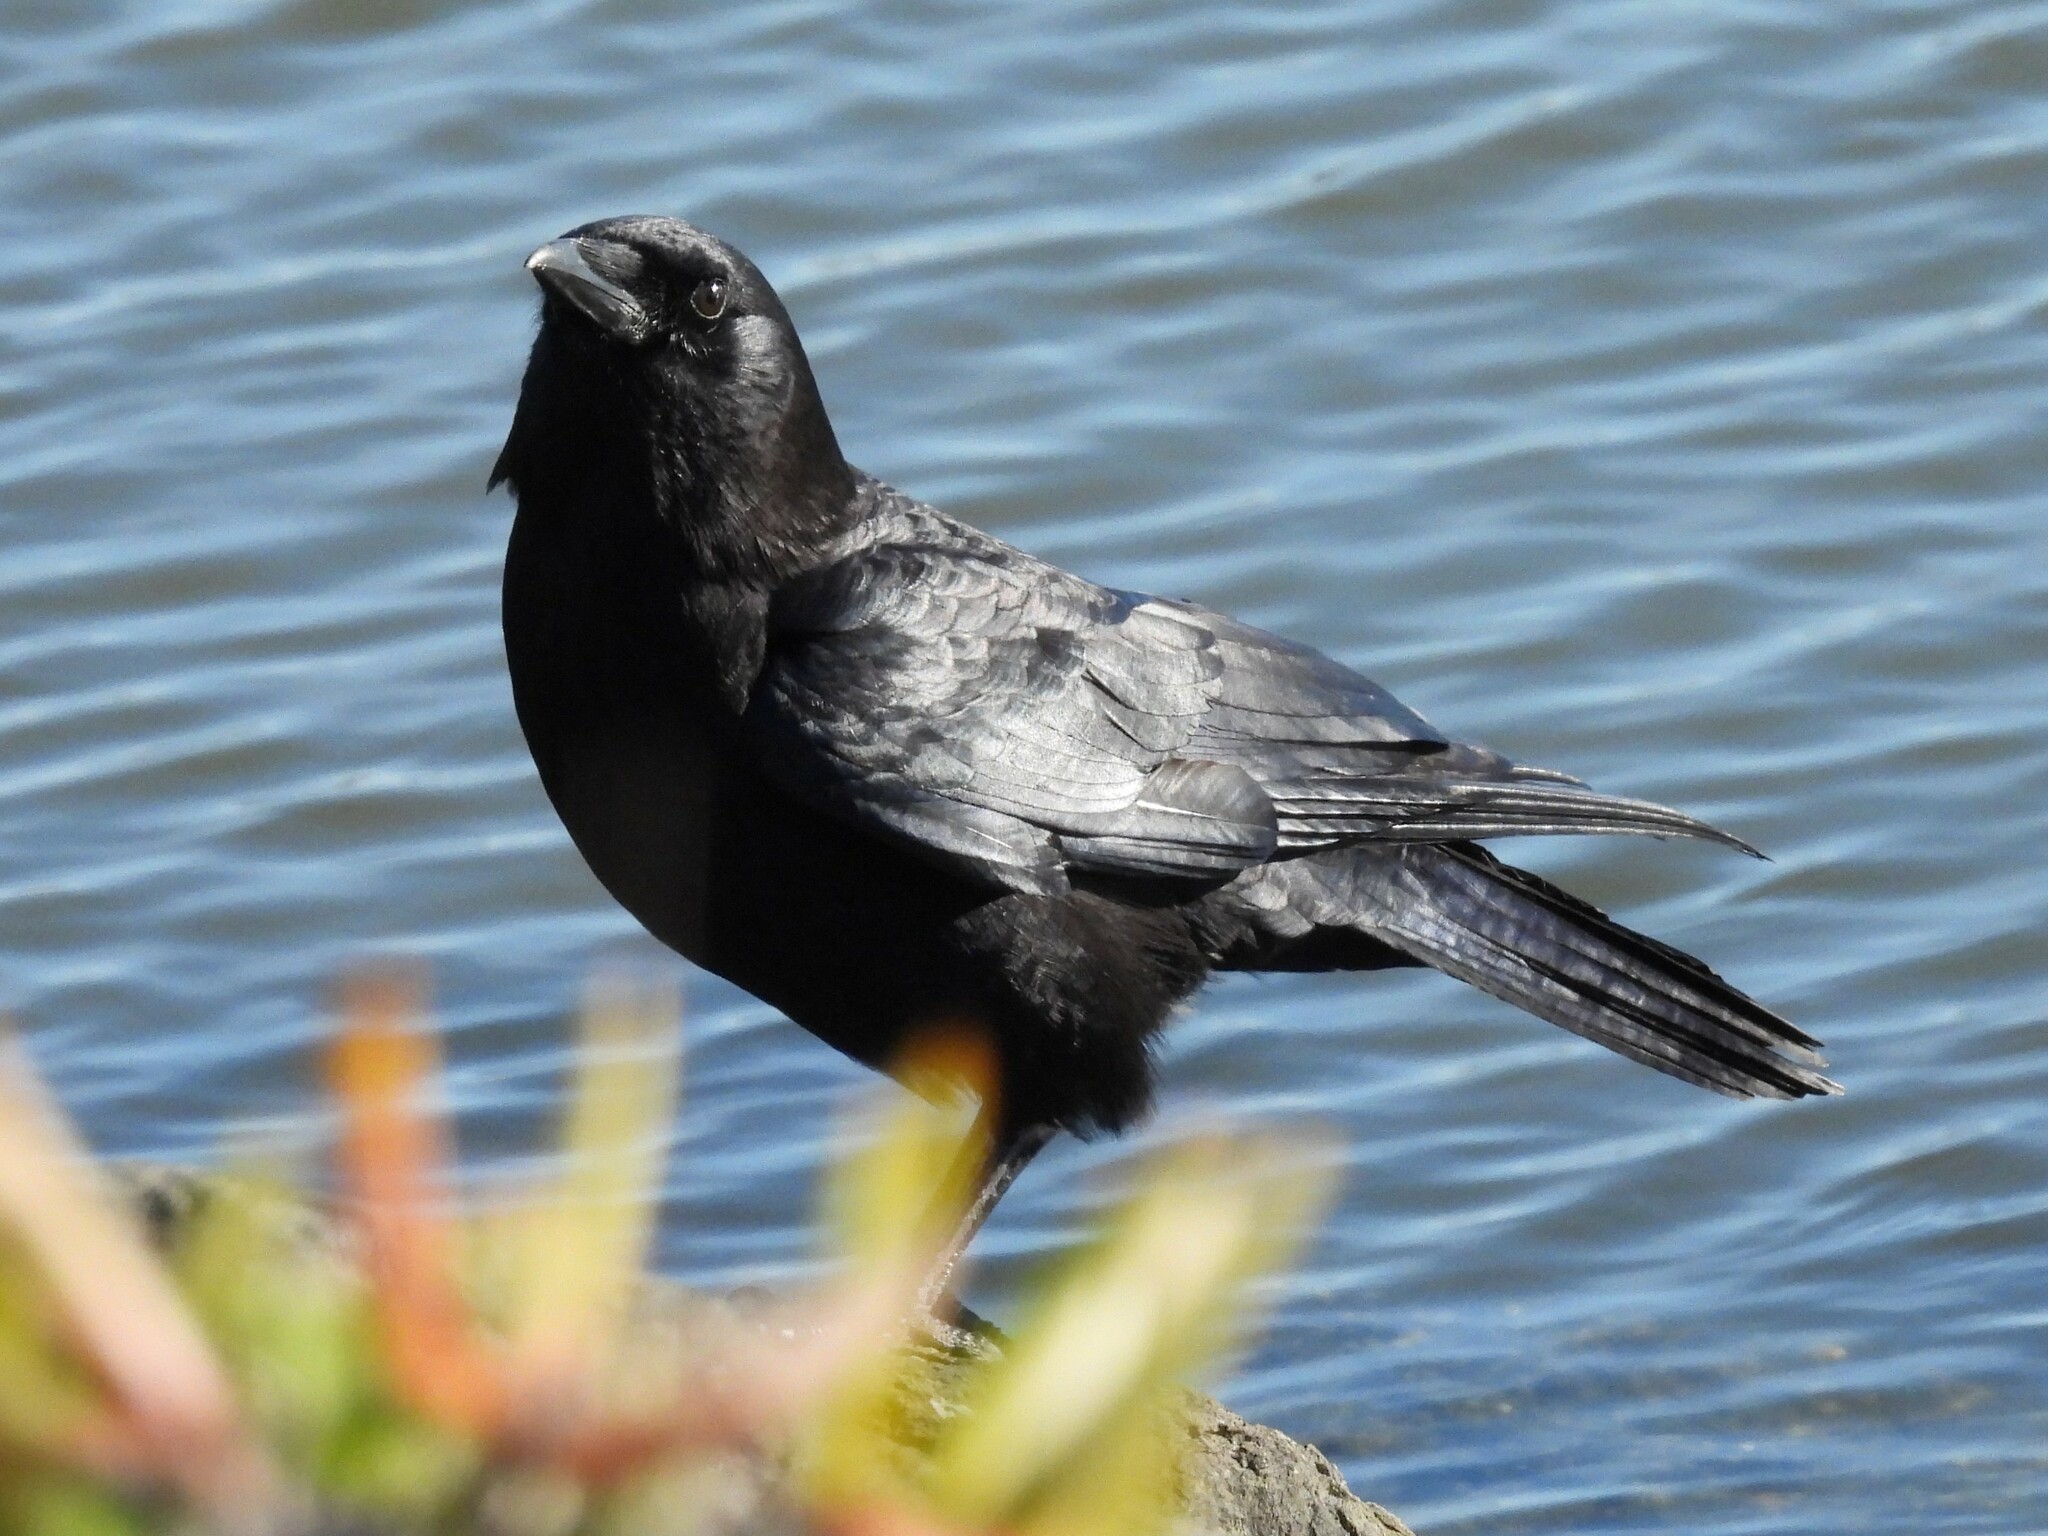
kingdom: Animalia
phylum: Chordata
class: Aves
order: Passeriformes
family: Corvidae
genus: Corvus
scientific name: Corvus brachyrhynchos
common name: American crow
